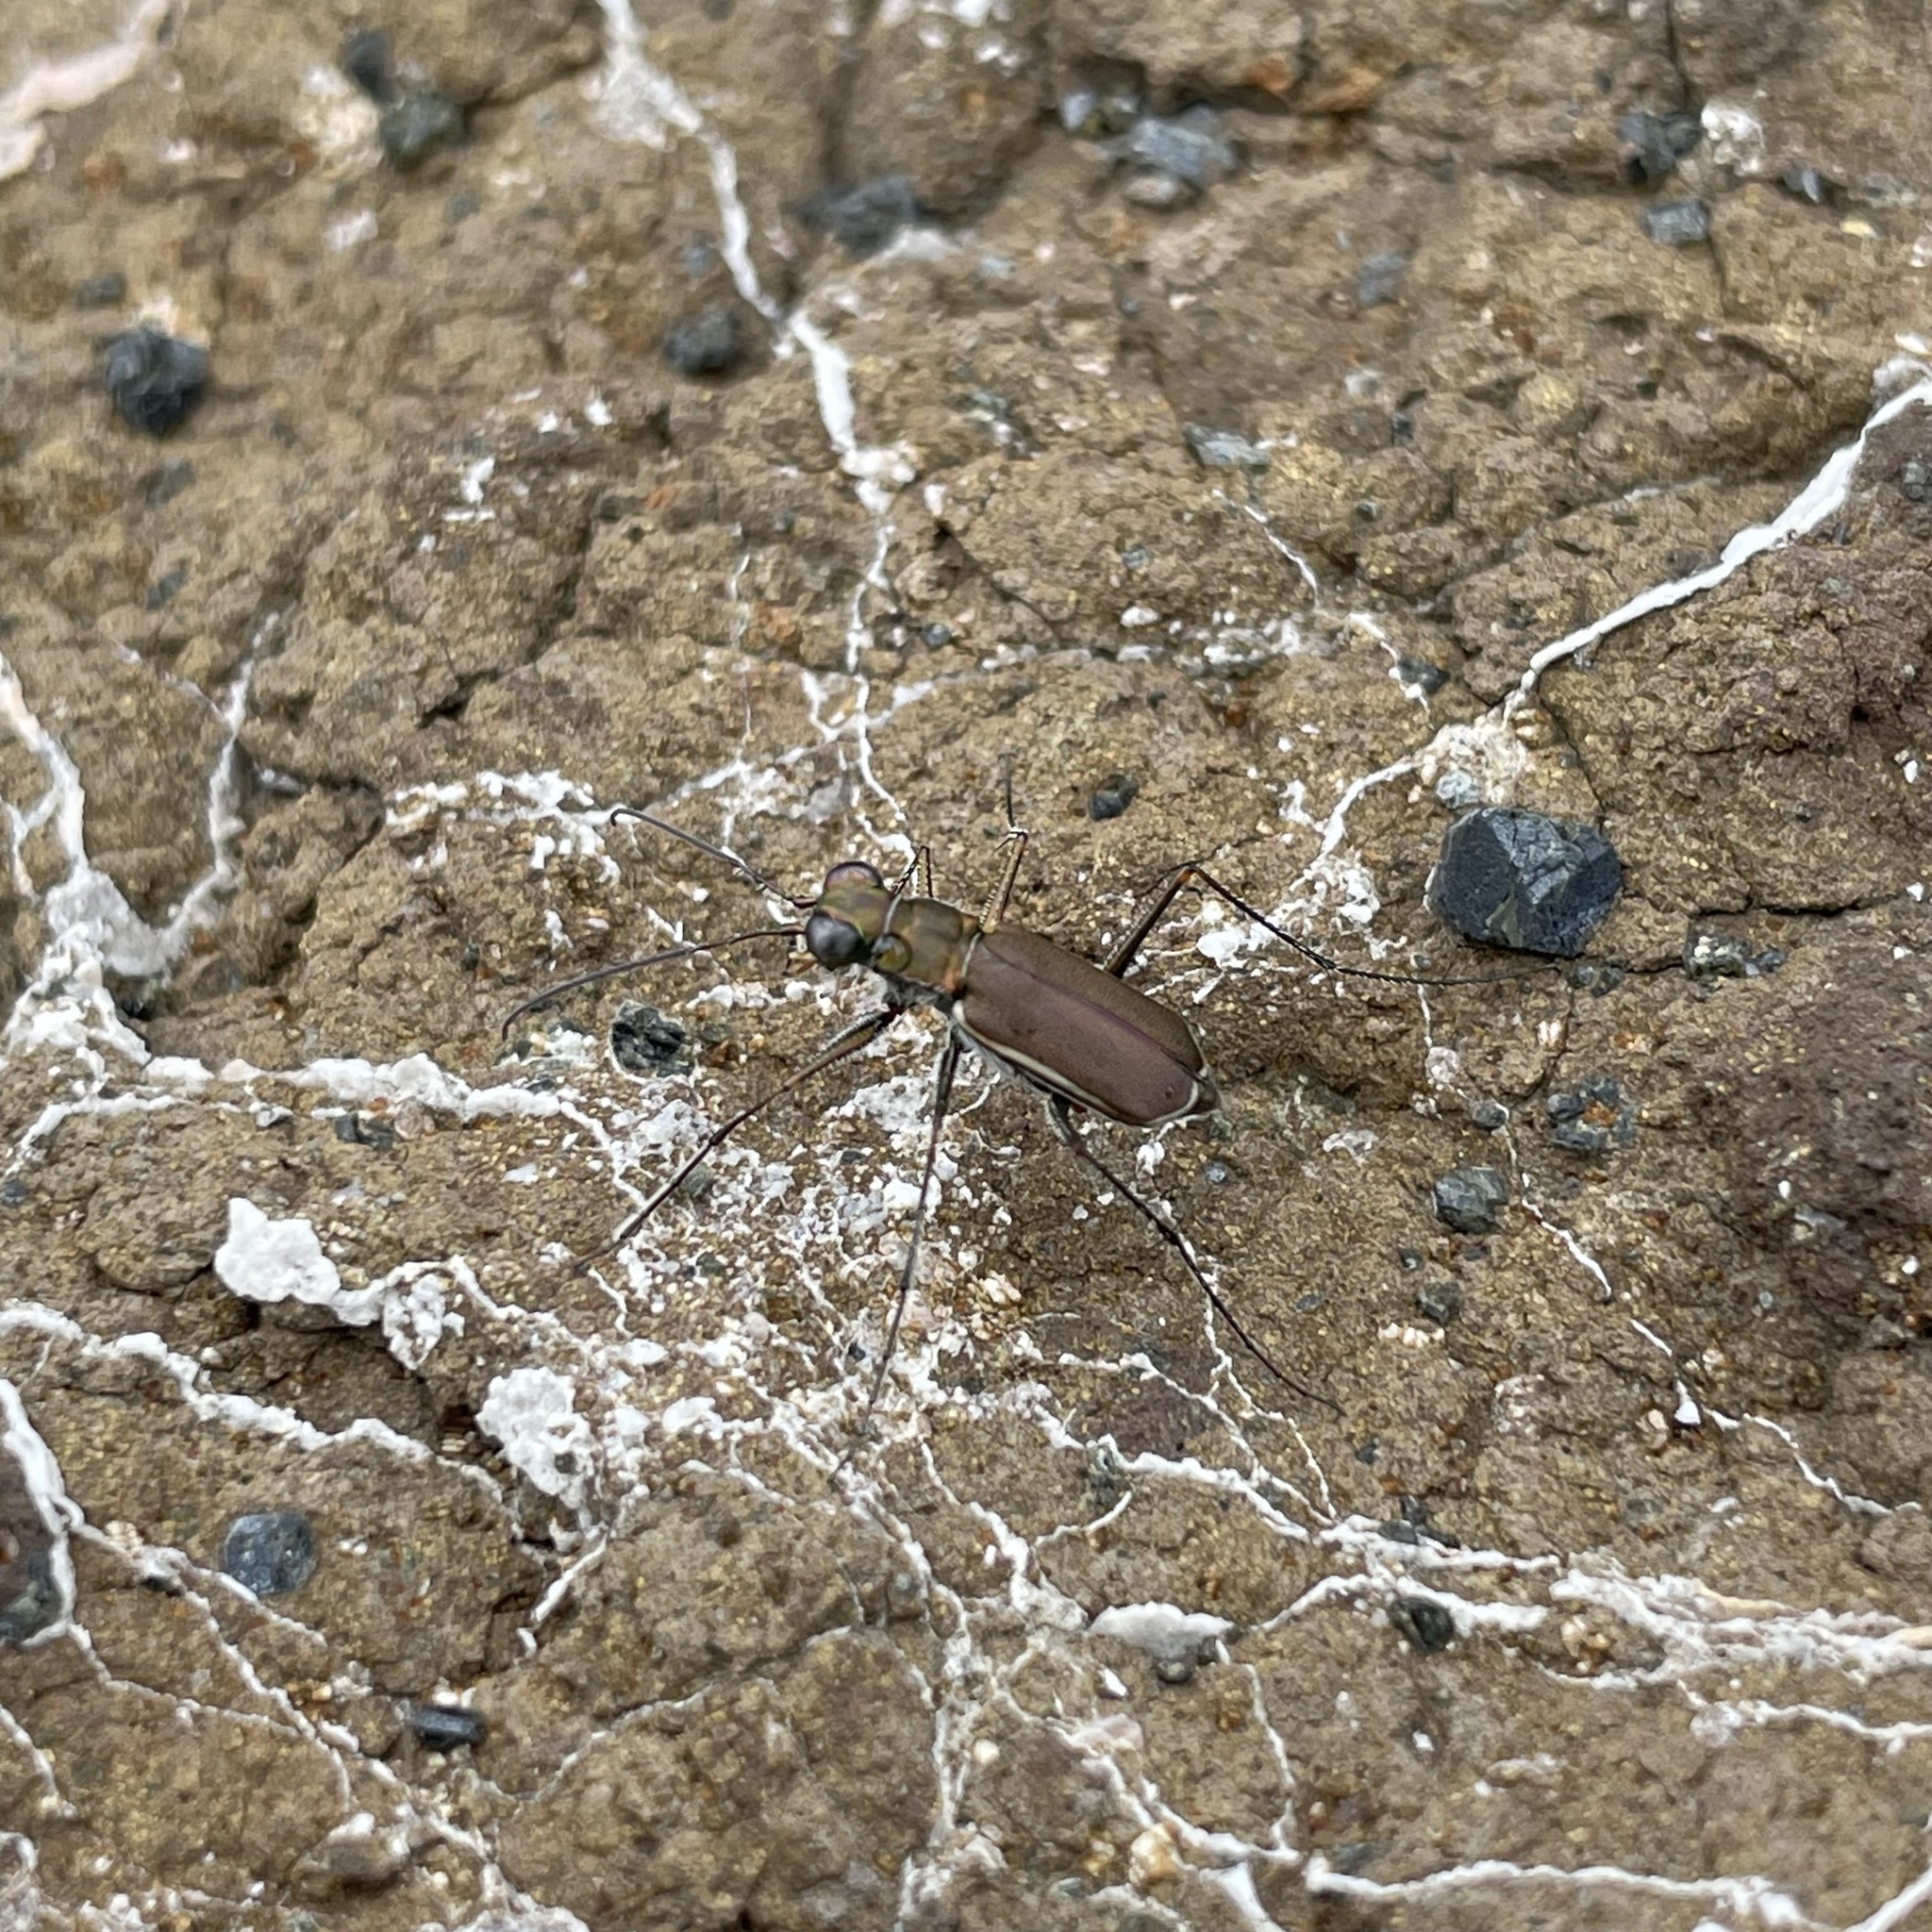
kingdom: Animalia
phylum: Arthropoda
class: Insecta
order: Coleoptera
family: Carabidae
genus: Callytron
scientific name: Callytron yuasai
